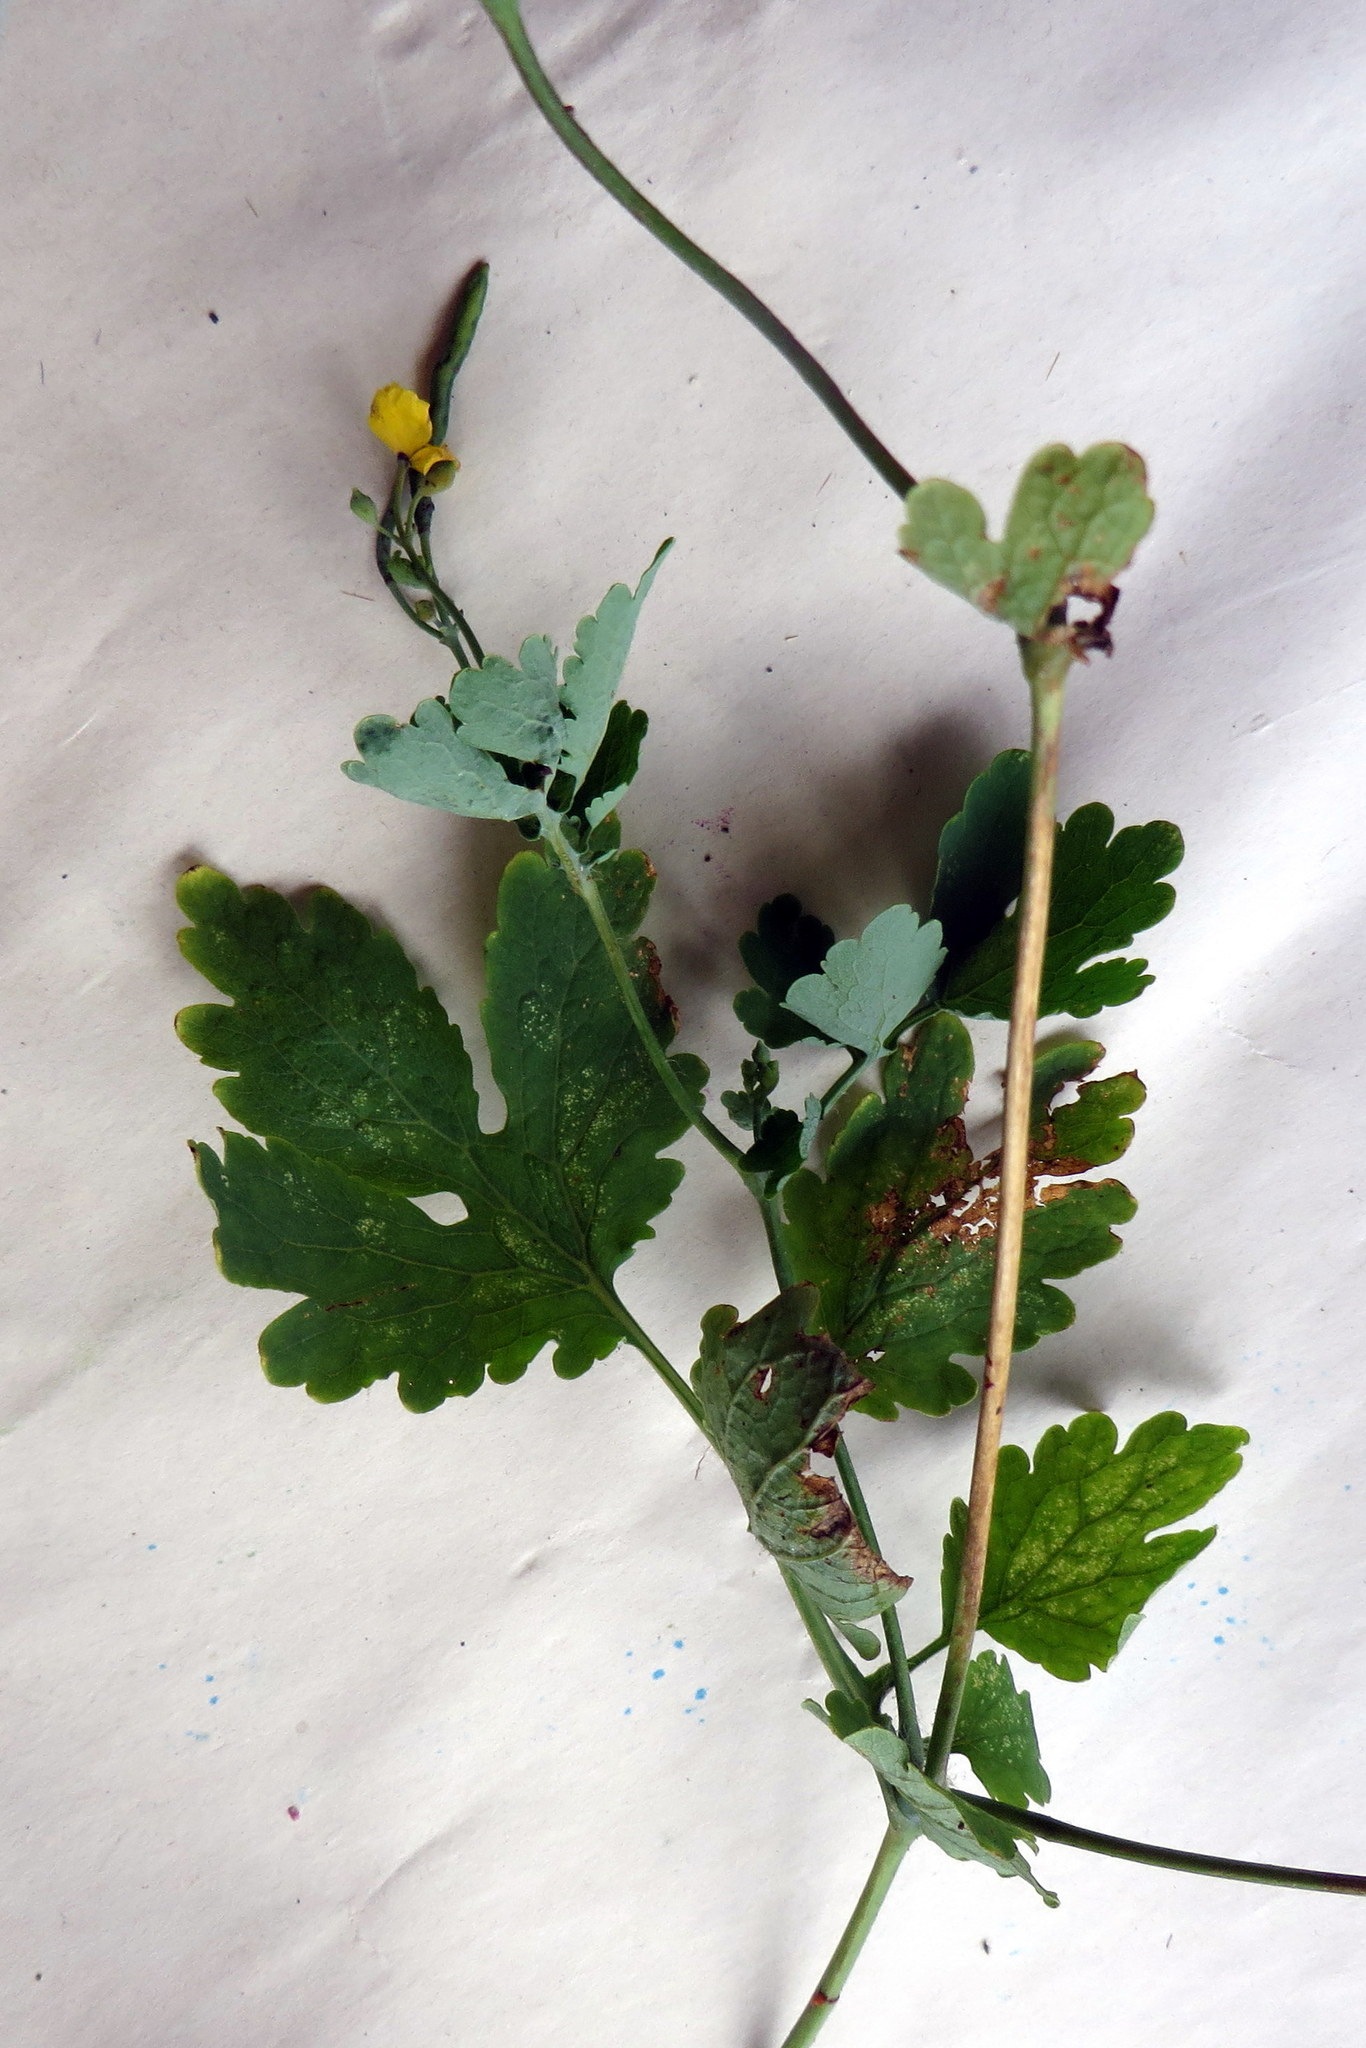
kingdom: Plantae
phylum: Tracheophyta
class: Magnoliopsida
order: Ranunculales
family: Papaveraceae
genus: Chelidonium
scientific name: Chelidonium majus
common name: Greater celandine
